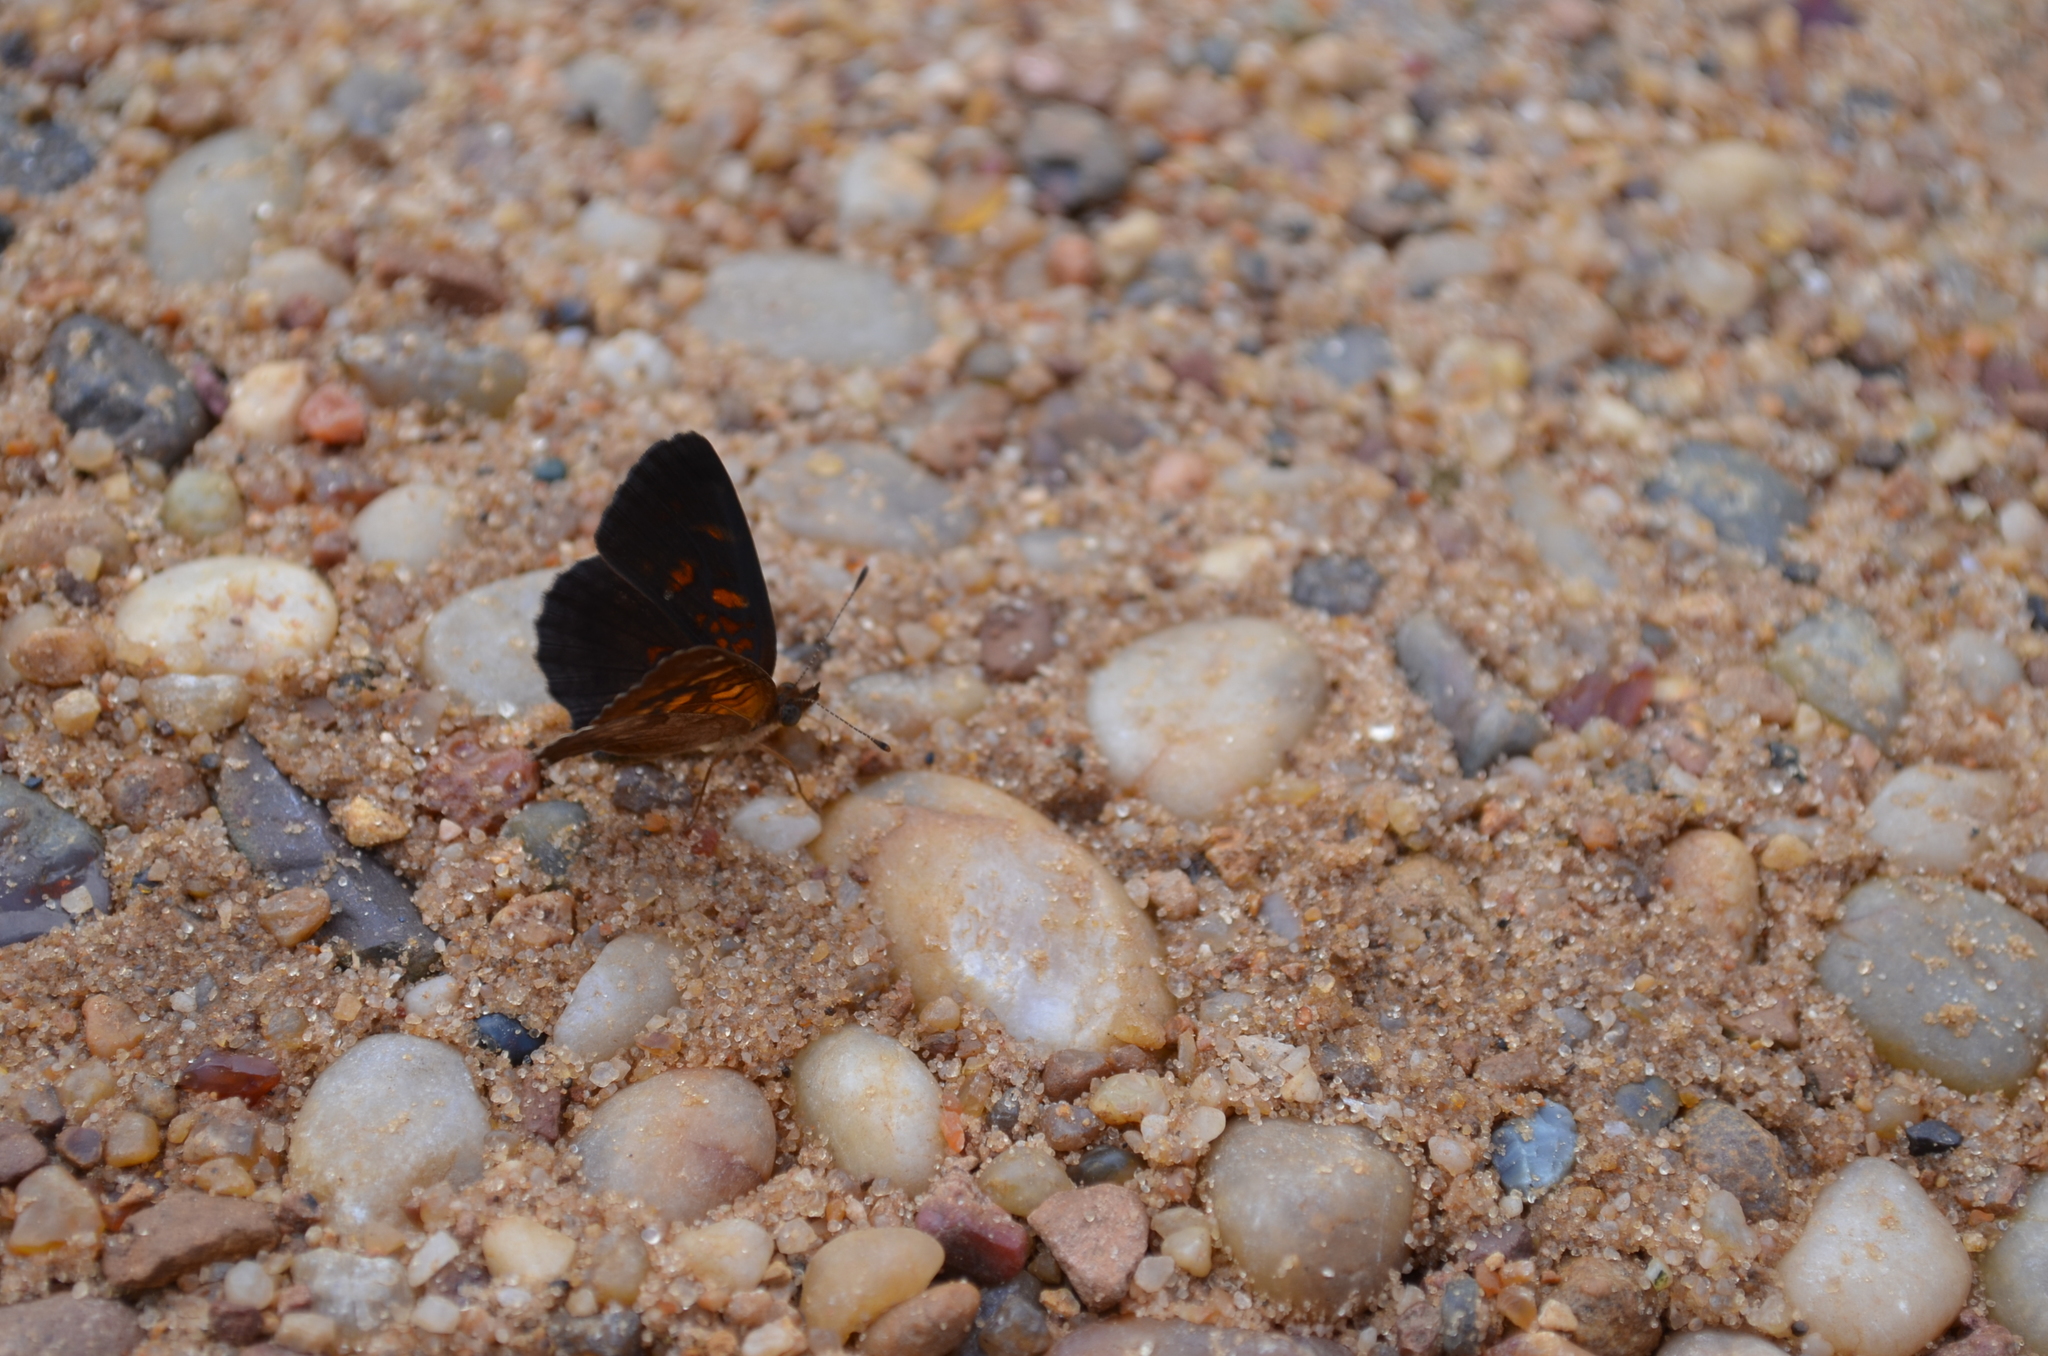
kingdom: Animalia
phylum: Arthropoda
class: Insecta
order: Lepidoptera
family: Nymphalidae
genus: Ortilia
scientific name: Ortilia velica
